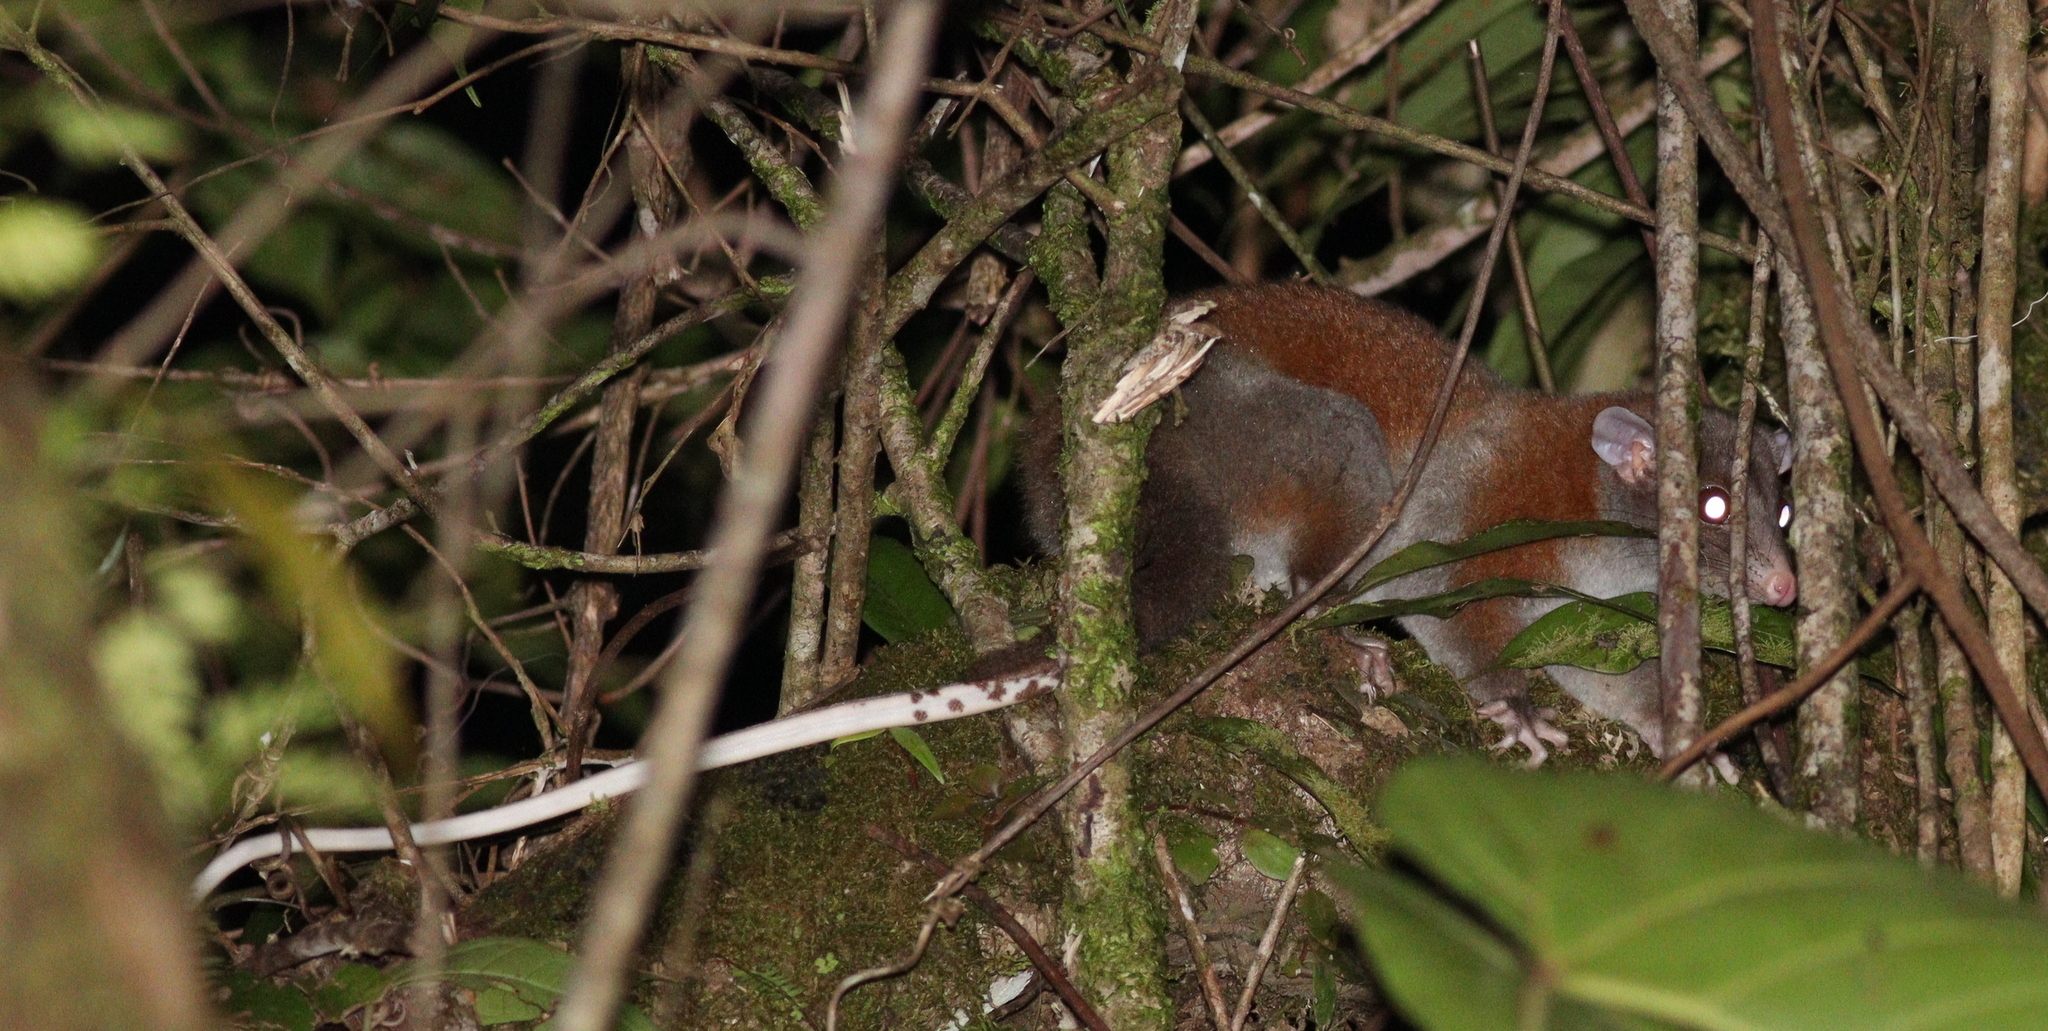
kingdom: Animalia
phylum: Chordata
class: Mammalia
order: Didelphimorphia
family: Didelphidae
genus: Caluromys
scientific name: Caluromys derbianus
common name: Derby's woolly opossum
